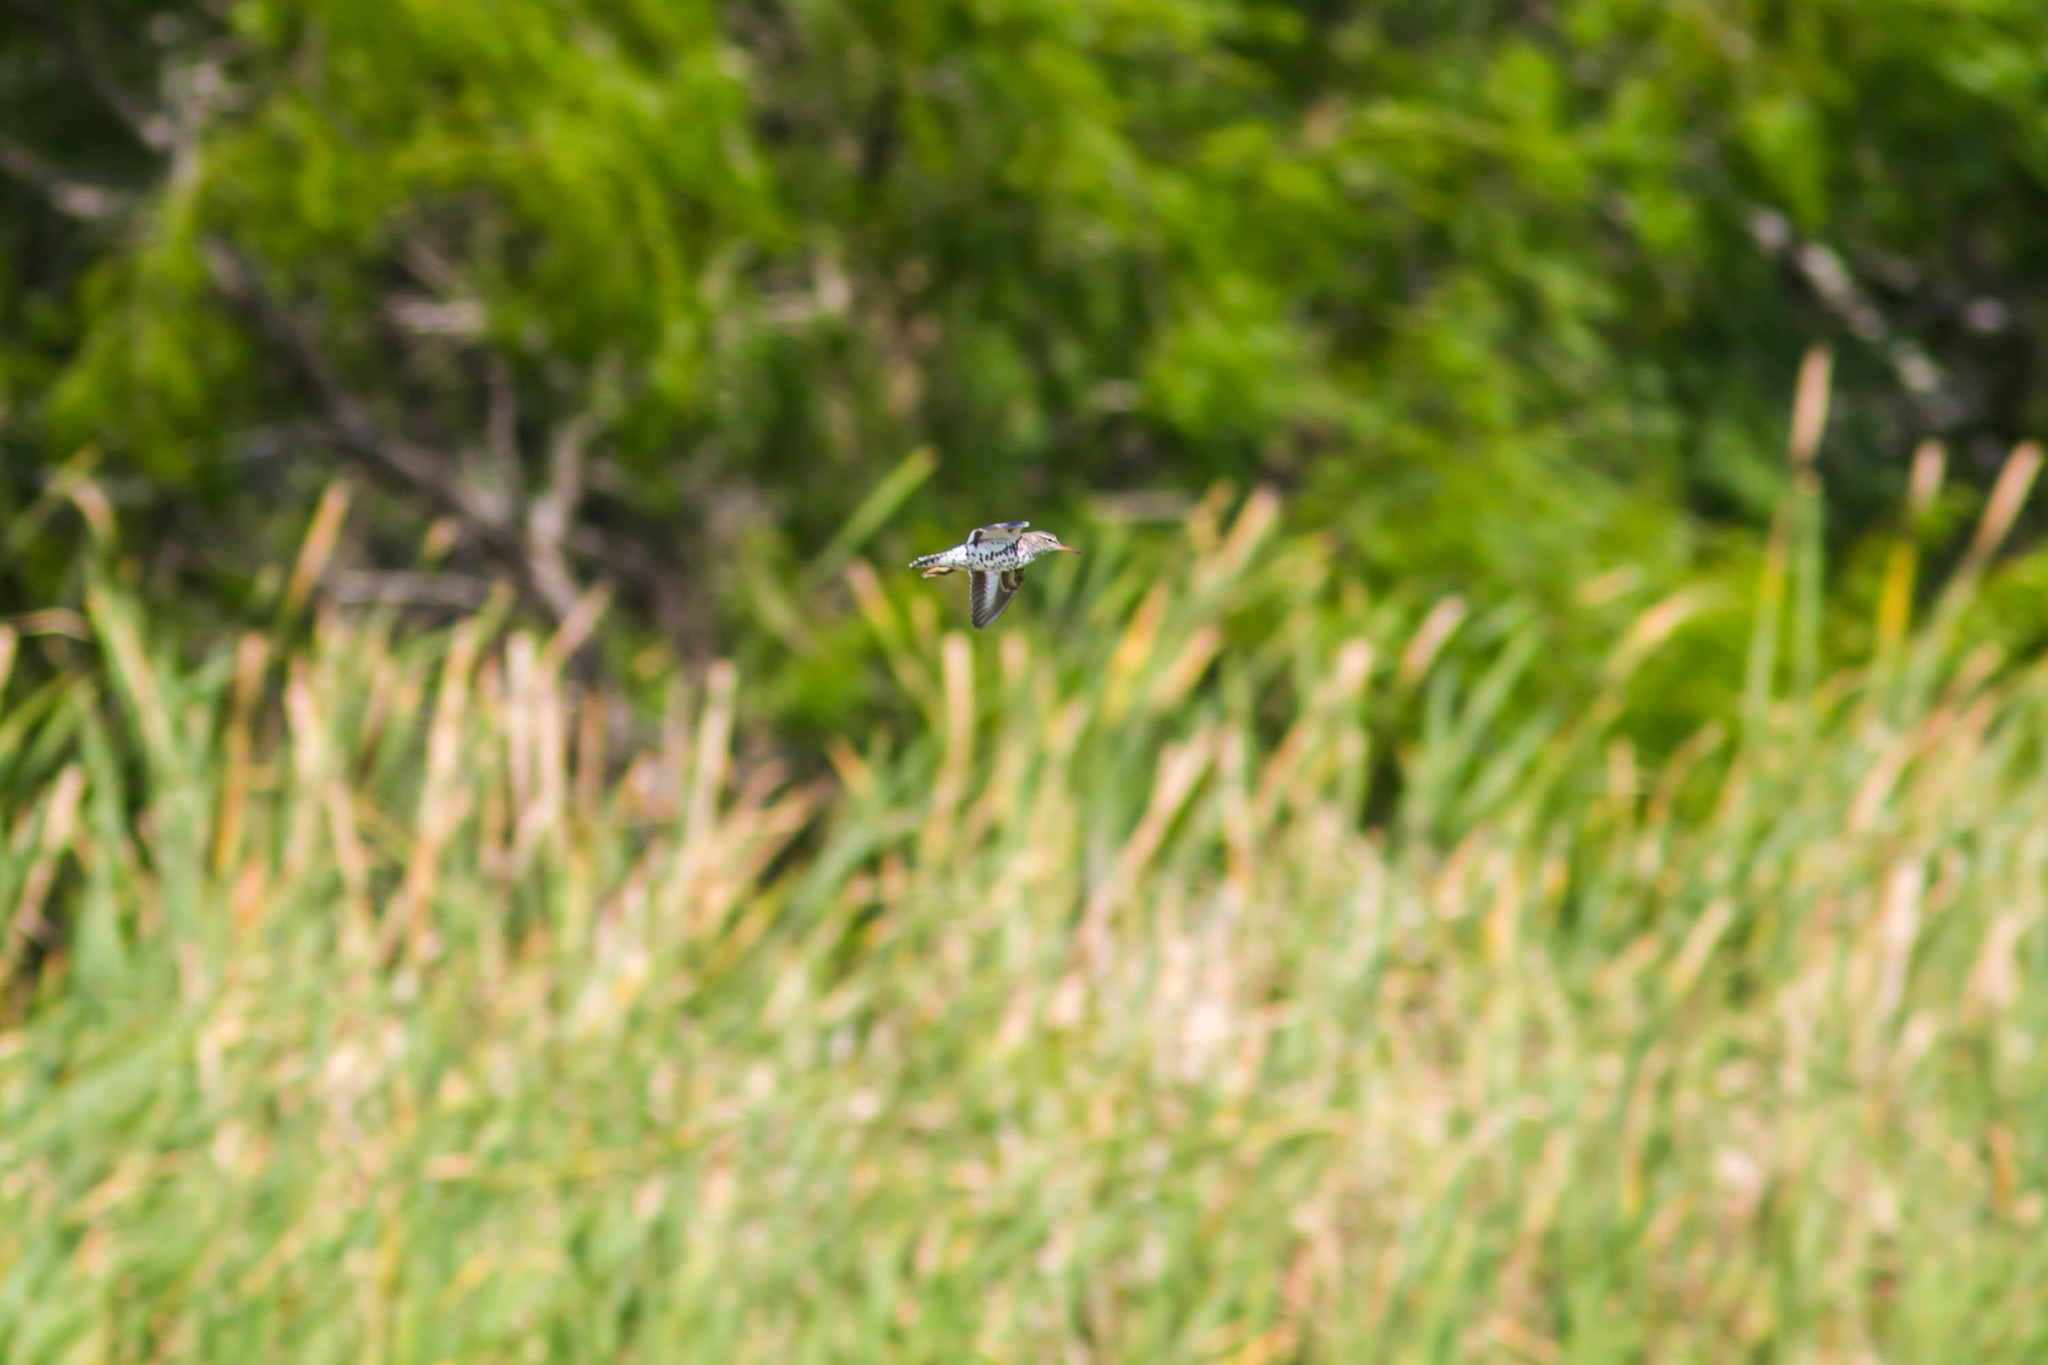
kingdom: Animalia
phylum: Chordata
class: Aves
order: Charadriiformes
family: Scolopacidae
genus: Actitis
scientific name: Actitis macularius
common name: Spotted sandpiper
